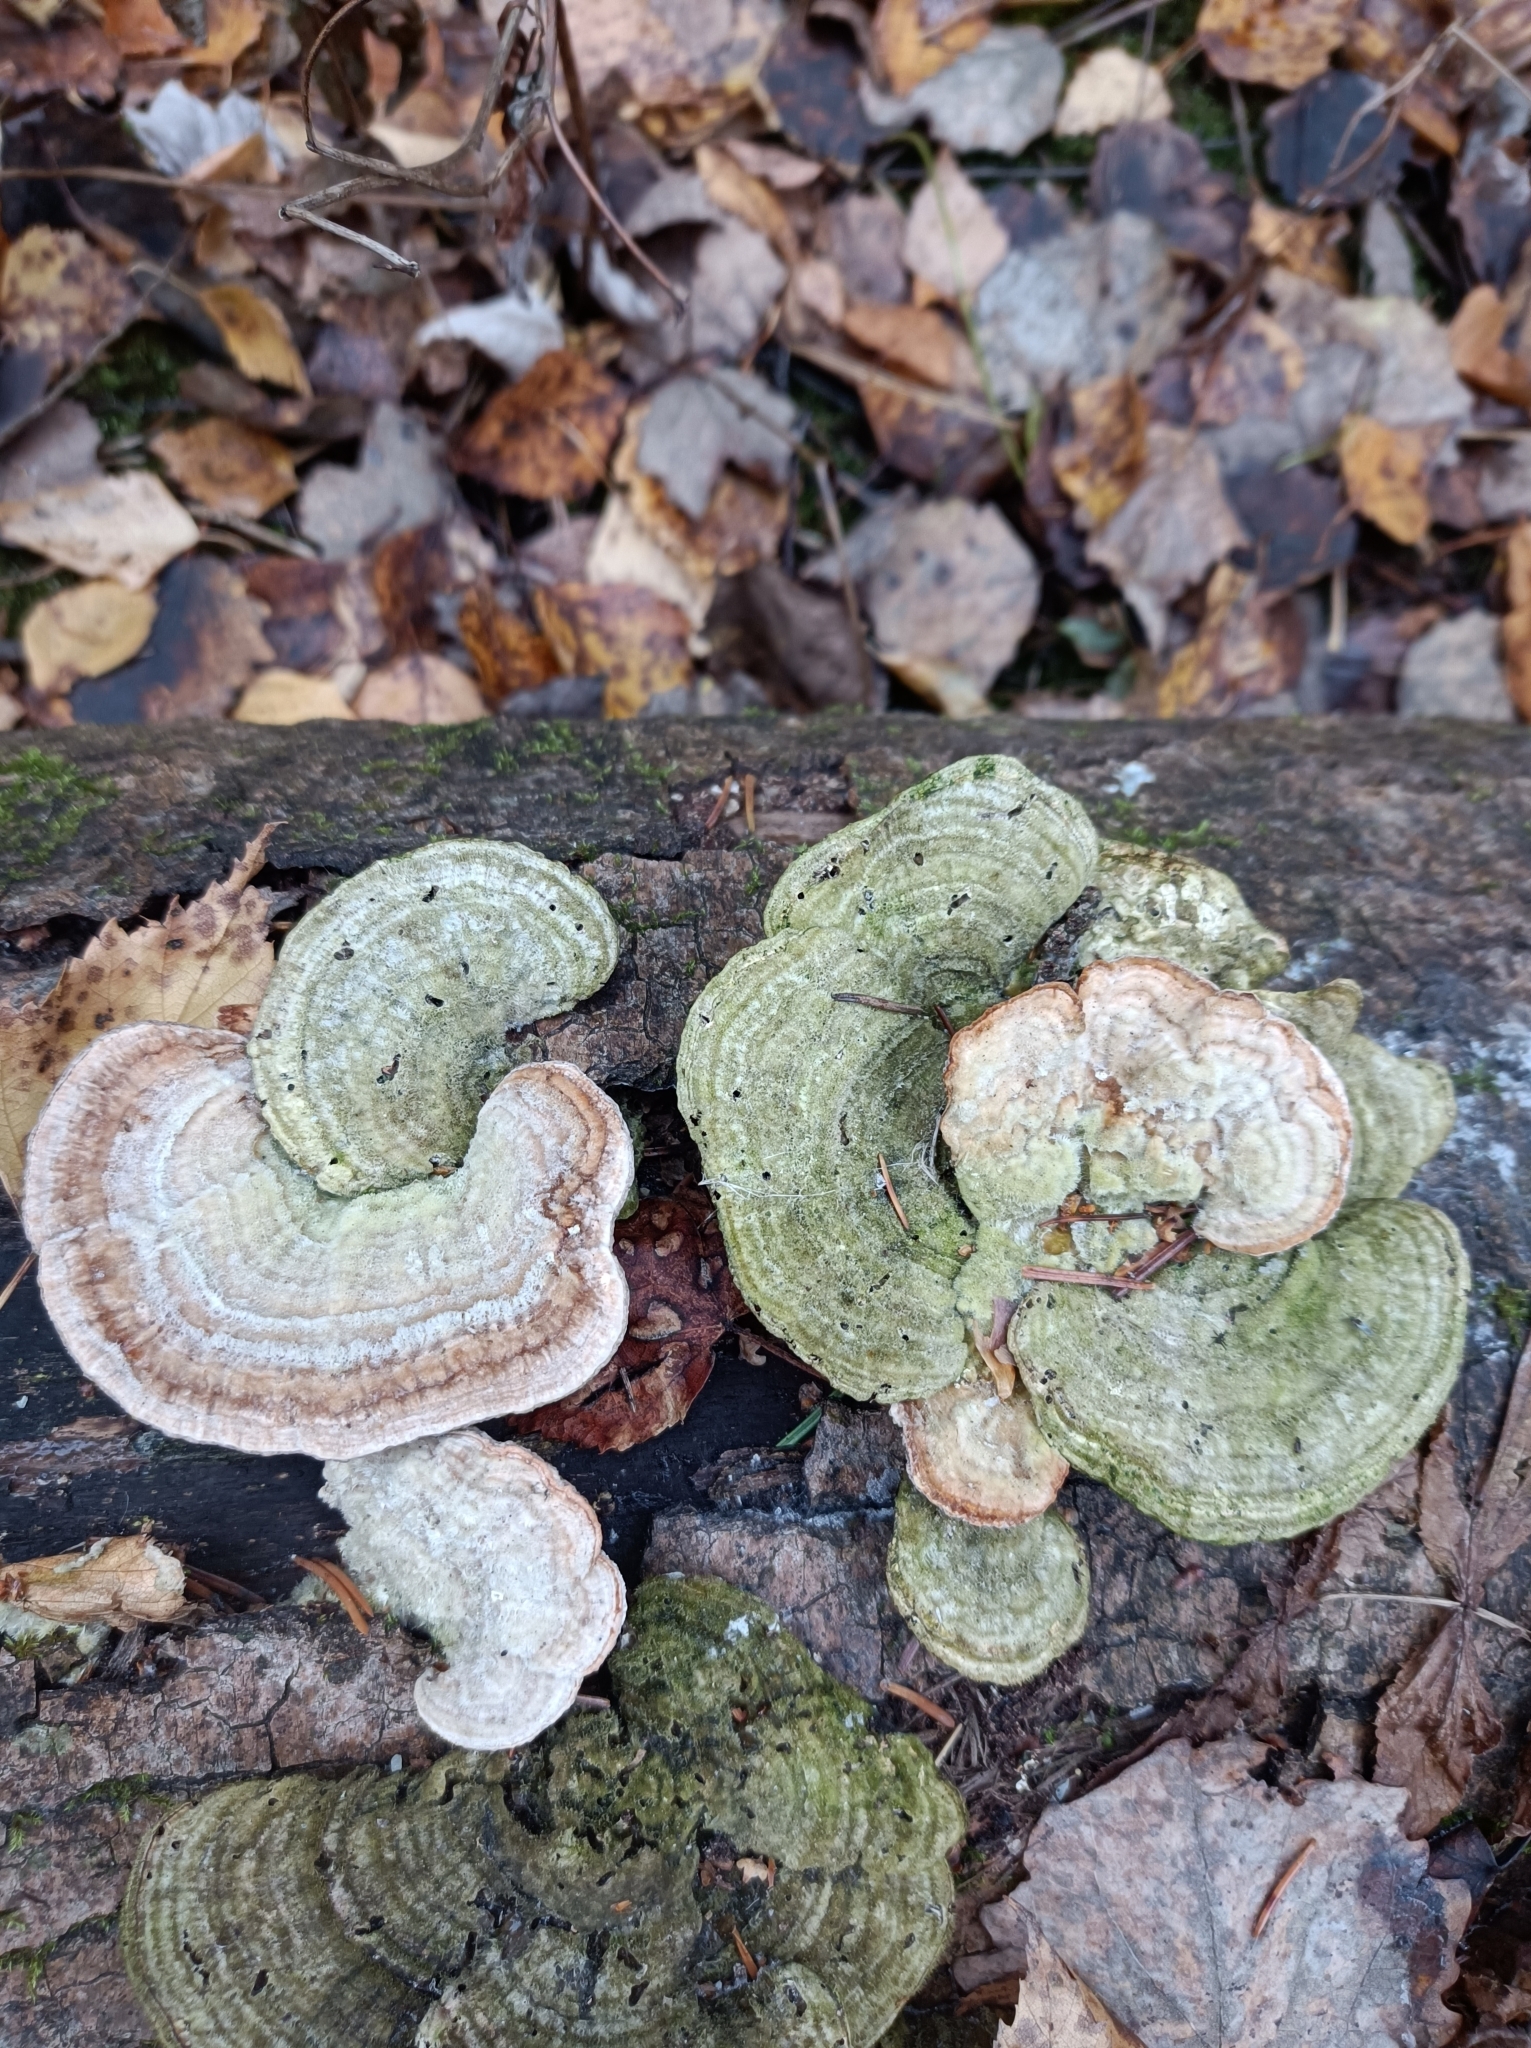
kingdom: Fungi
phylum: Basidiomycota
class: Agaricomycetes
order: Polyporales
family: Polyporaceae
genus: Lenzites
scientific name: Lenzites betulinus
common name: Birch mazegill
